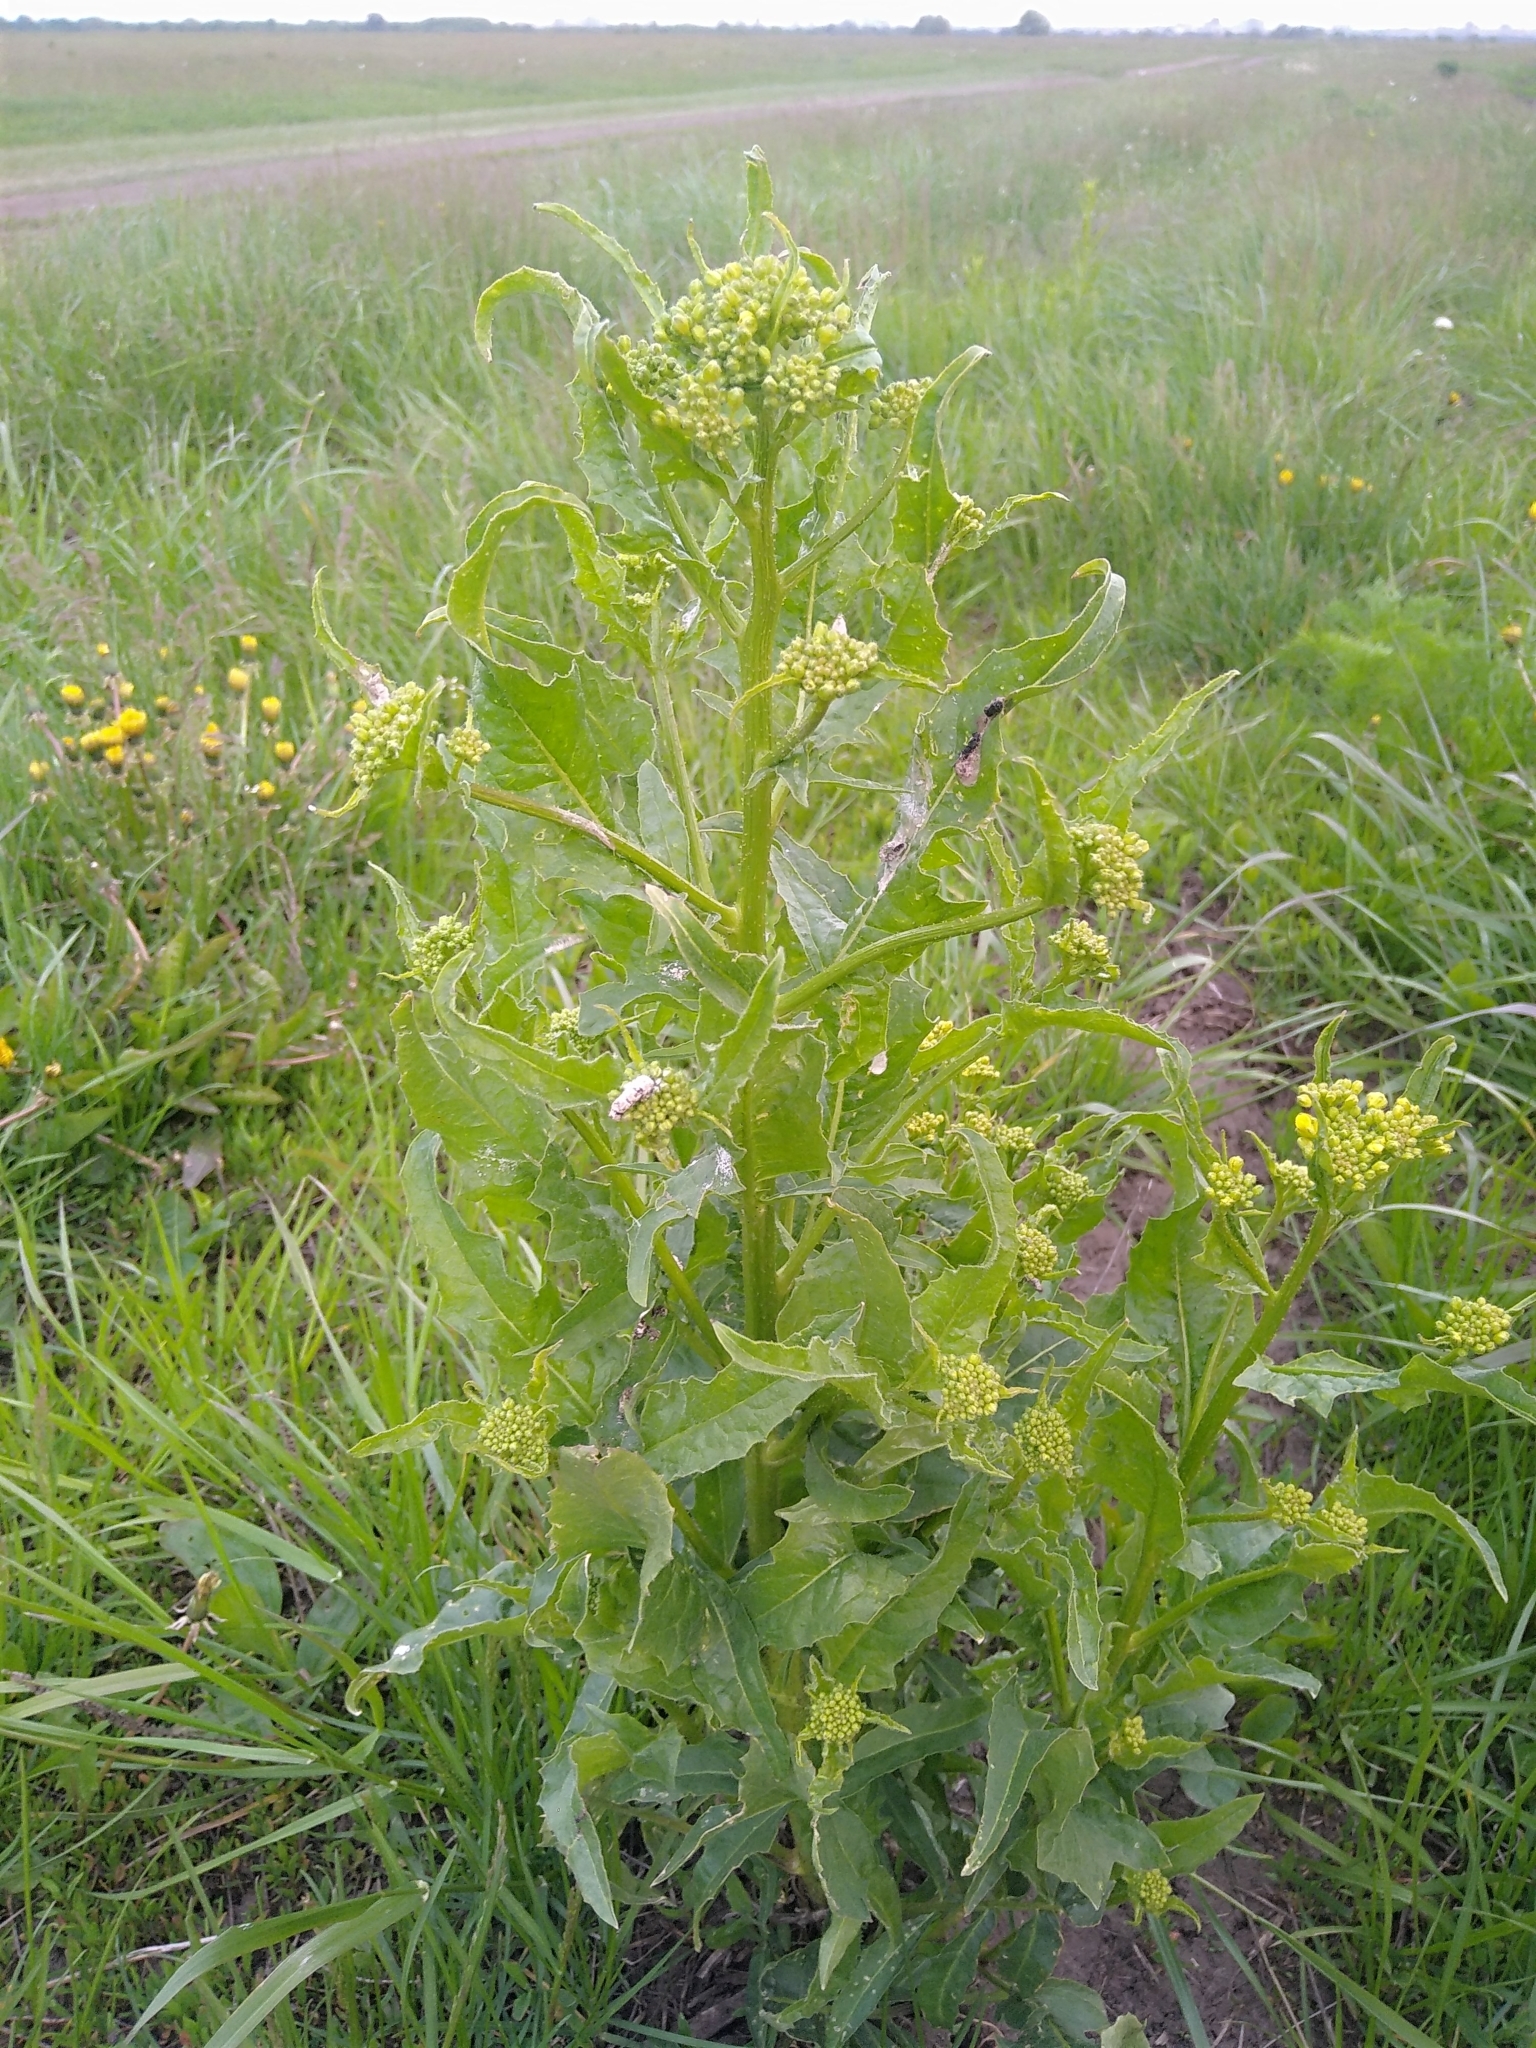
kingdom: Plantae
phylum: Tracheophyta
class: Magnoliopsida
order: Brassicales
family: Brassicaceae
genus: Bunias
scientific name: Bunias orientalis
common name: Warty-cabbage
